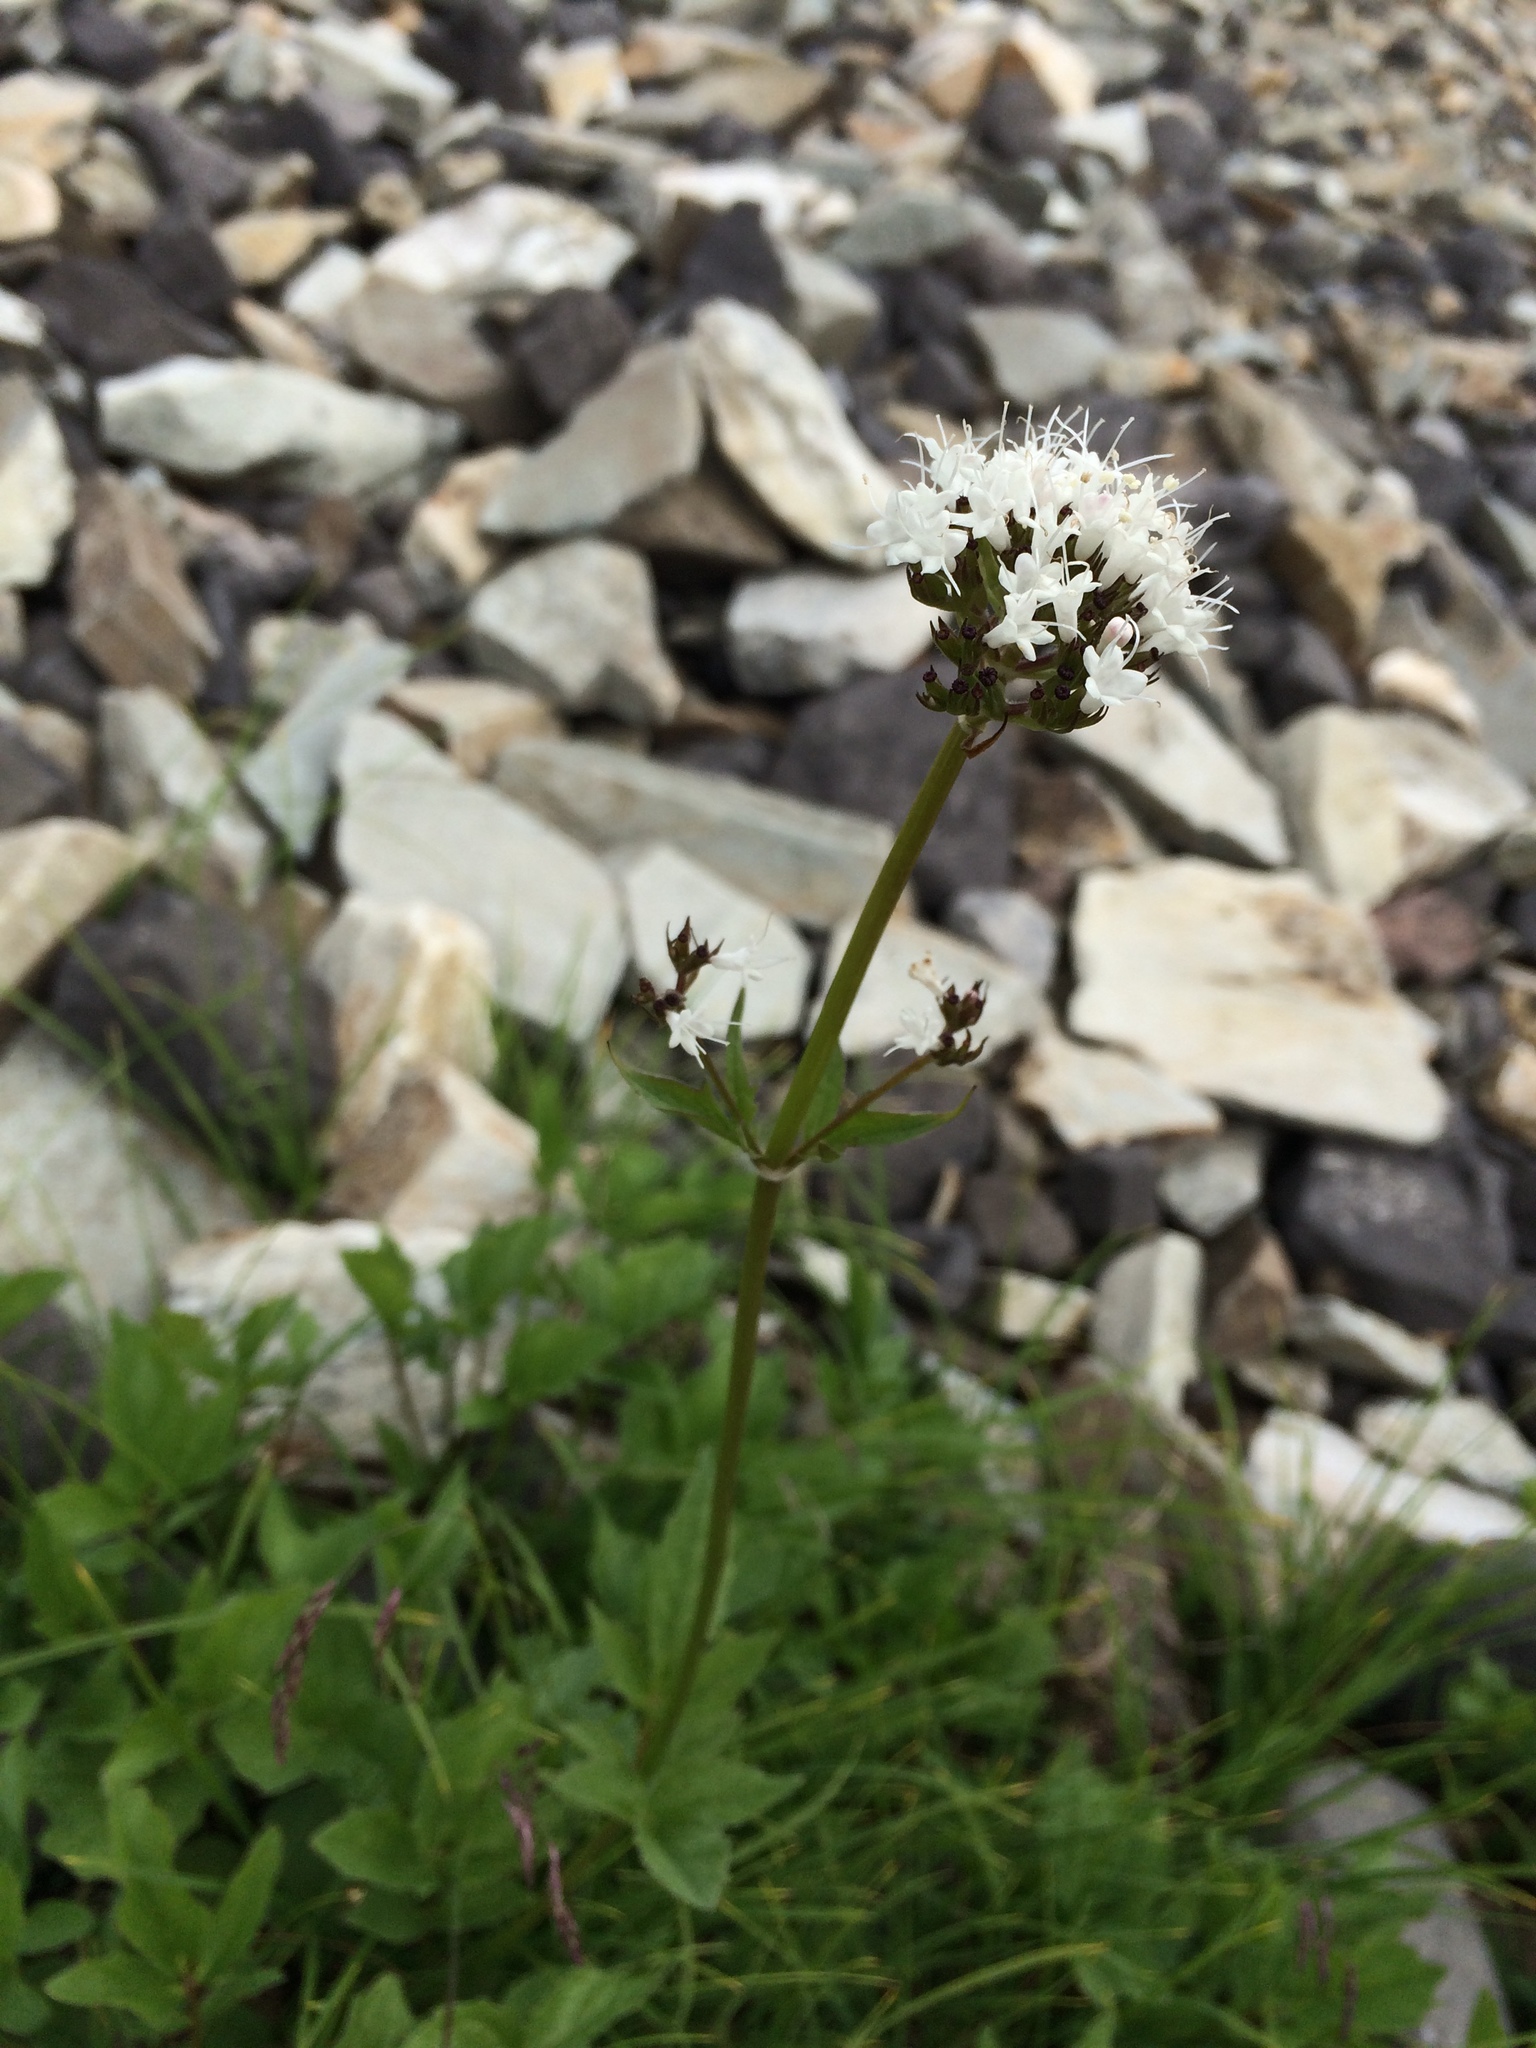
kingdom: Plantae
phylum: Tracheophyta
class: Magnoliopsida
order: Dipsacales
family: Caprifoliaceae
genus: Valeriana
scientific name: Valeriana sitchensis
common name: Pacific valerian
